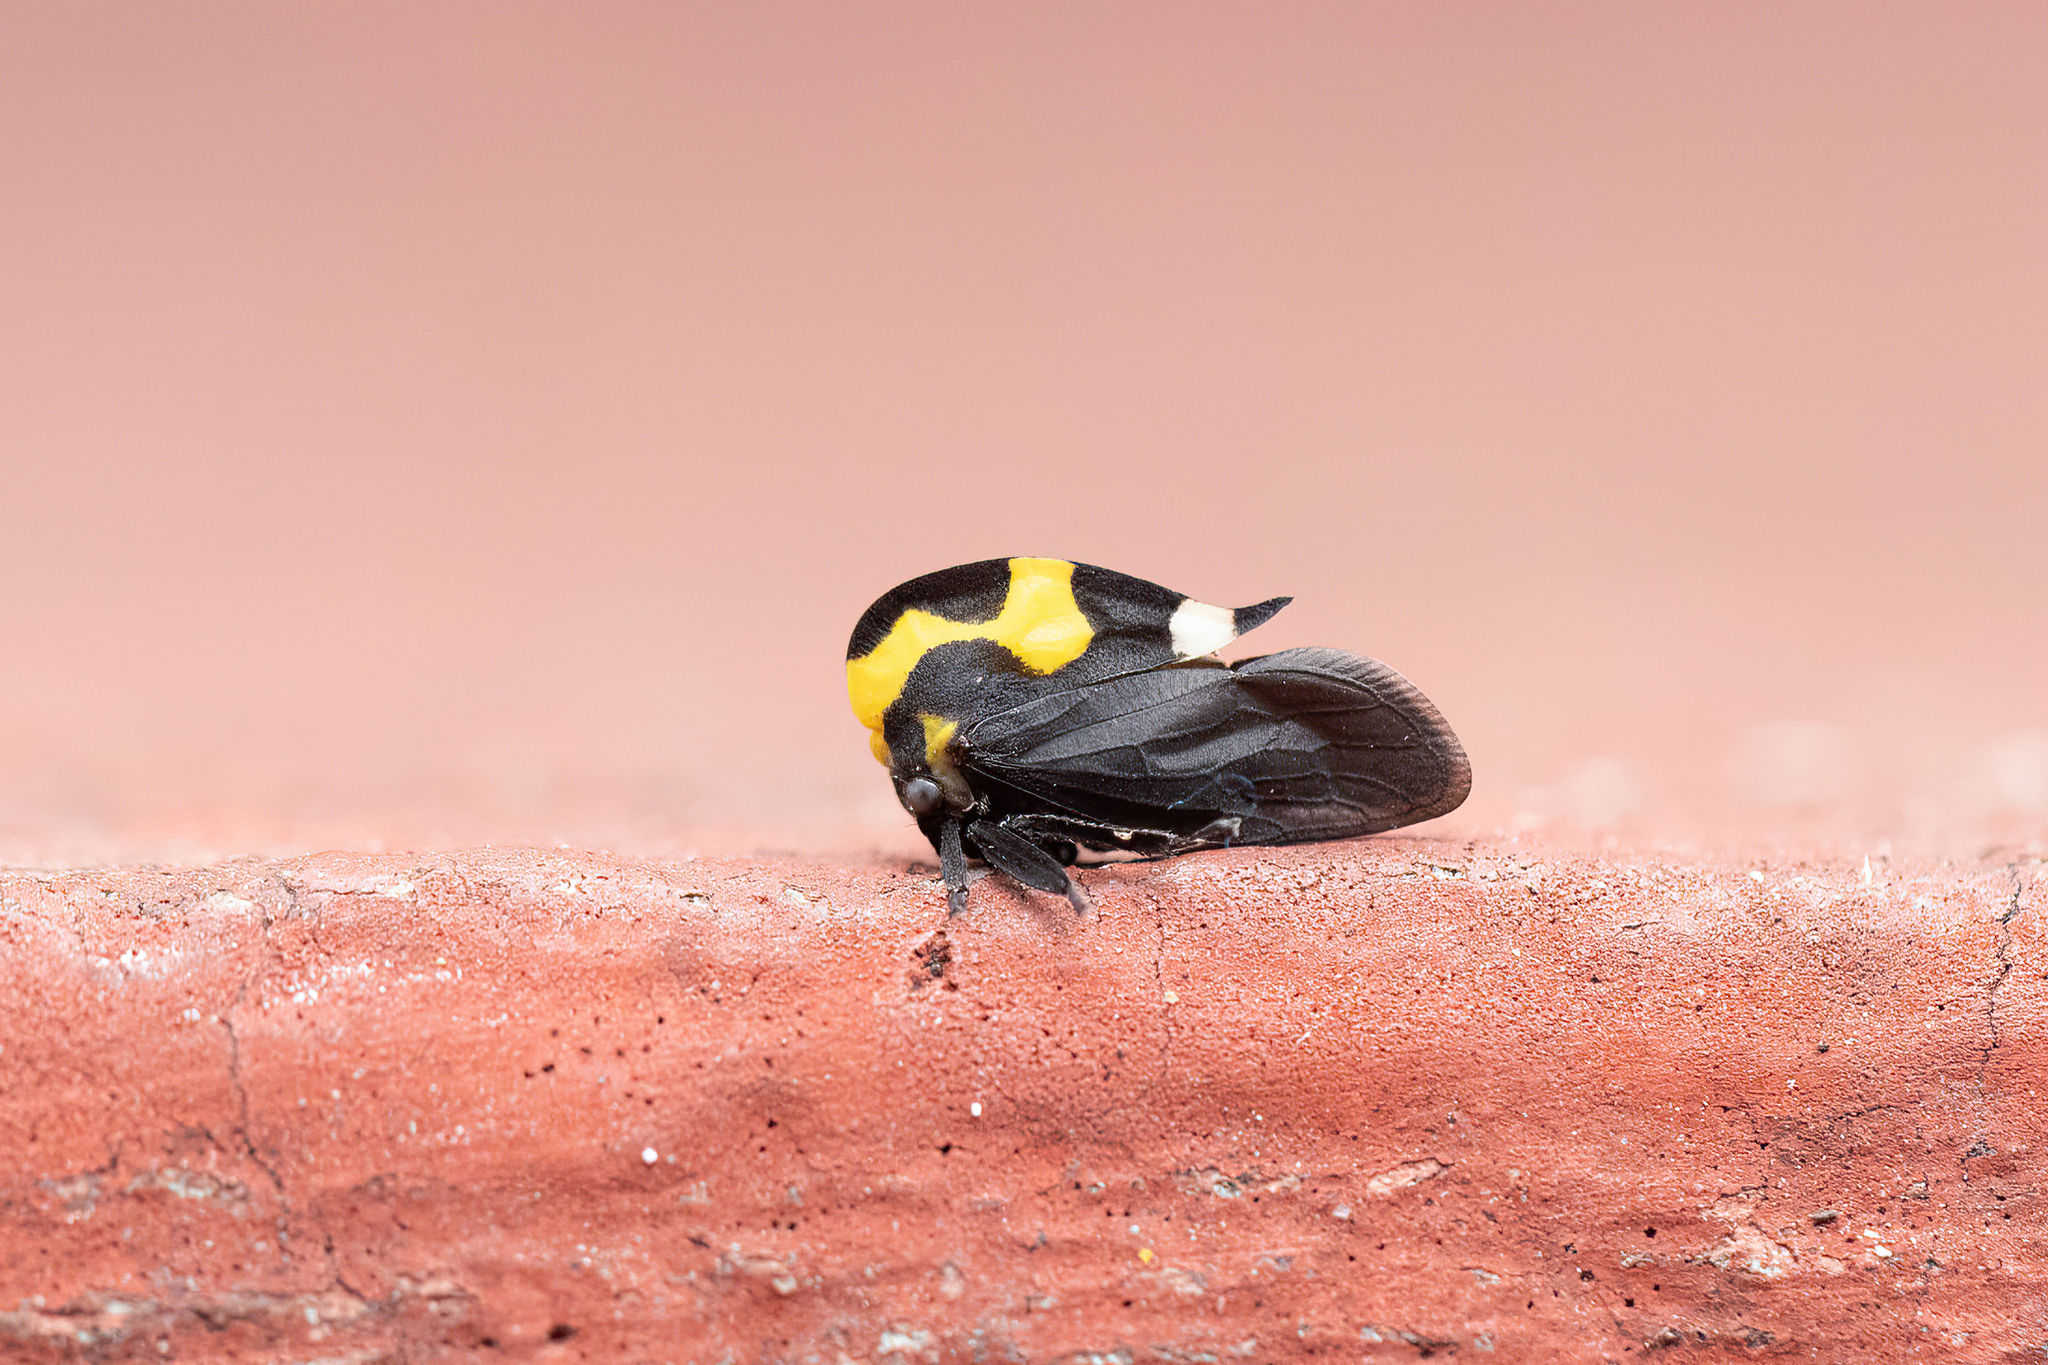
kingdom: Animalia
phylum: Arthropoda
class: Insecta
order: Hemiptera
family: Membracidae
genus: Membracis
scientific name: Membracis mexicana
